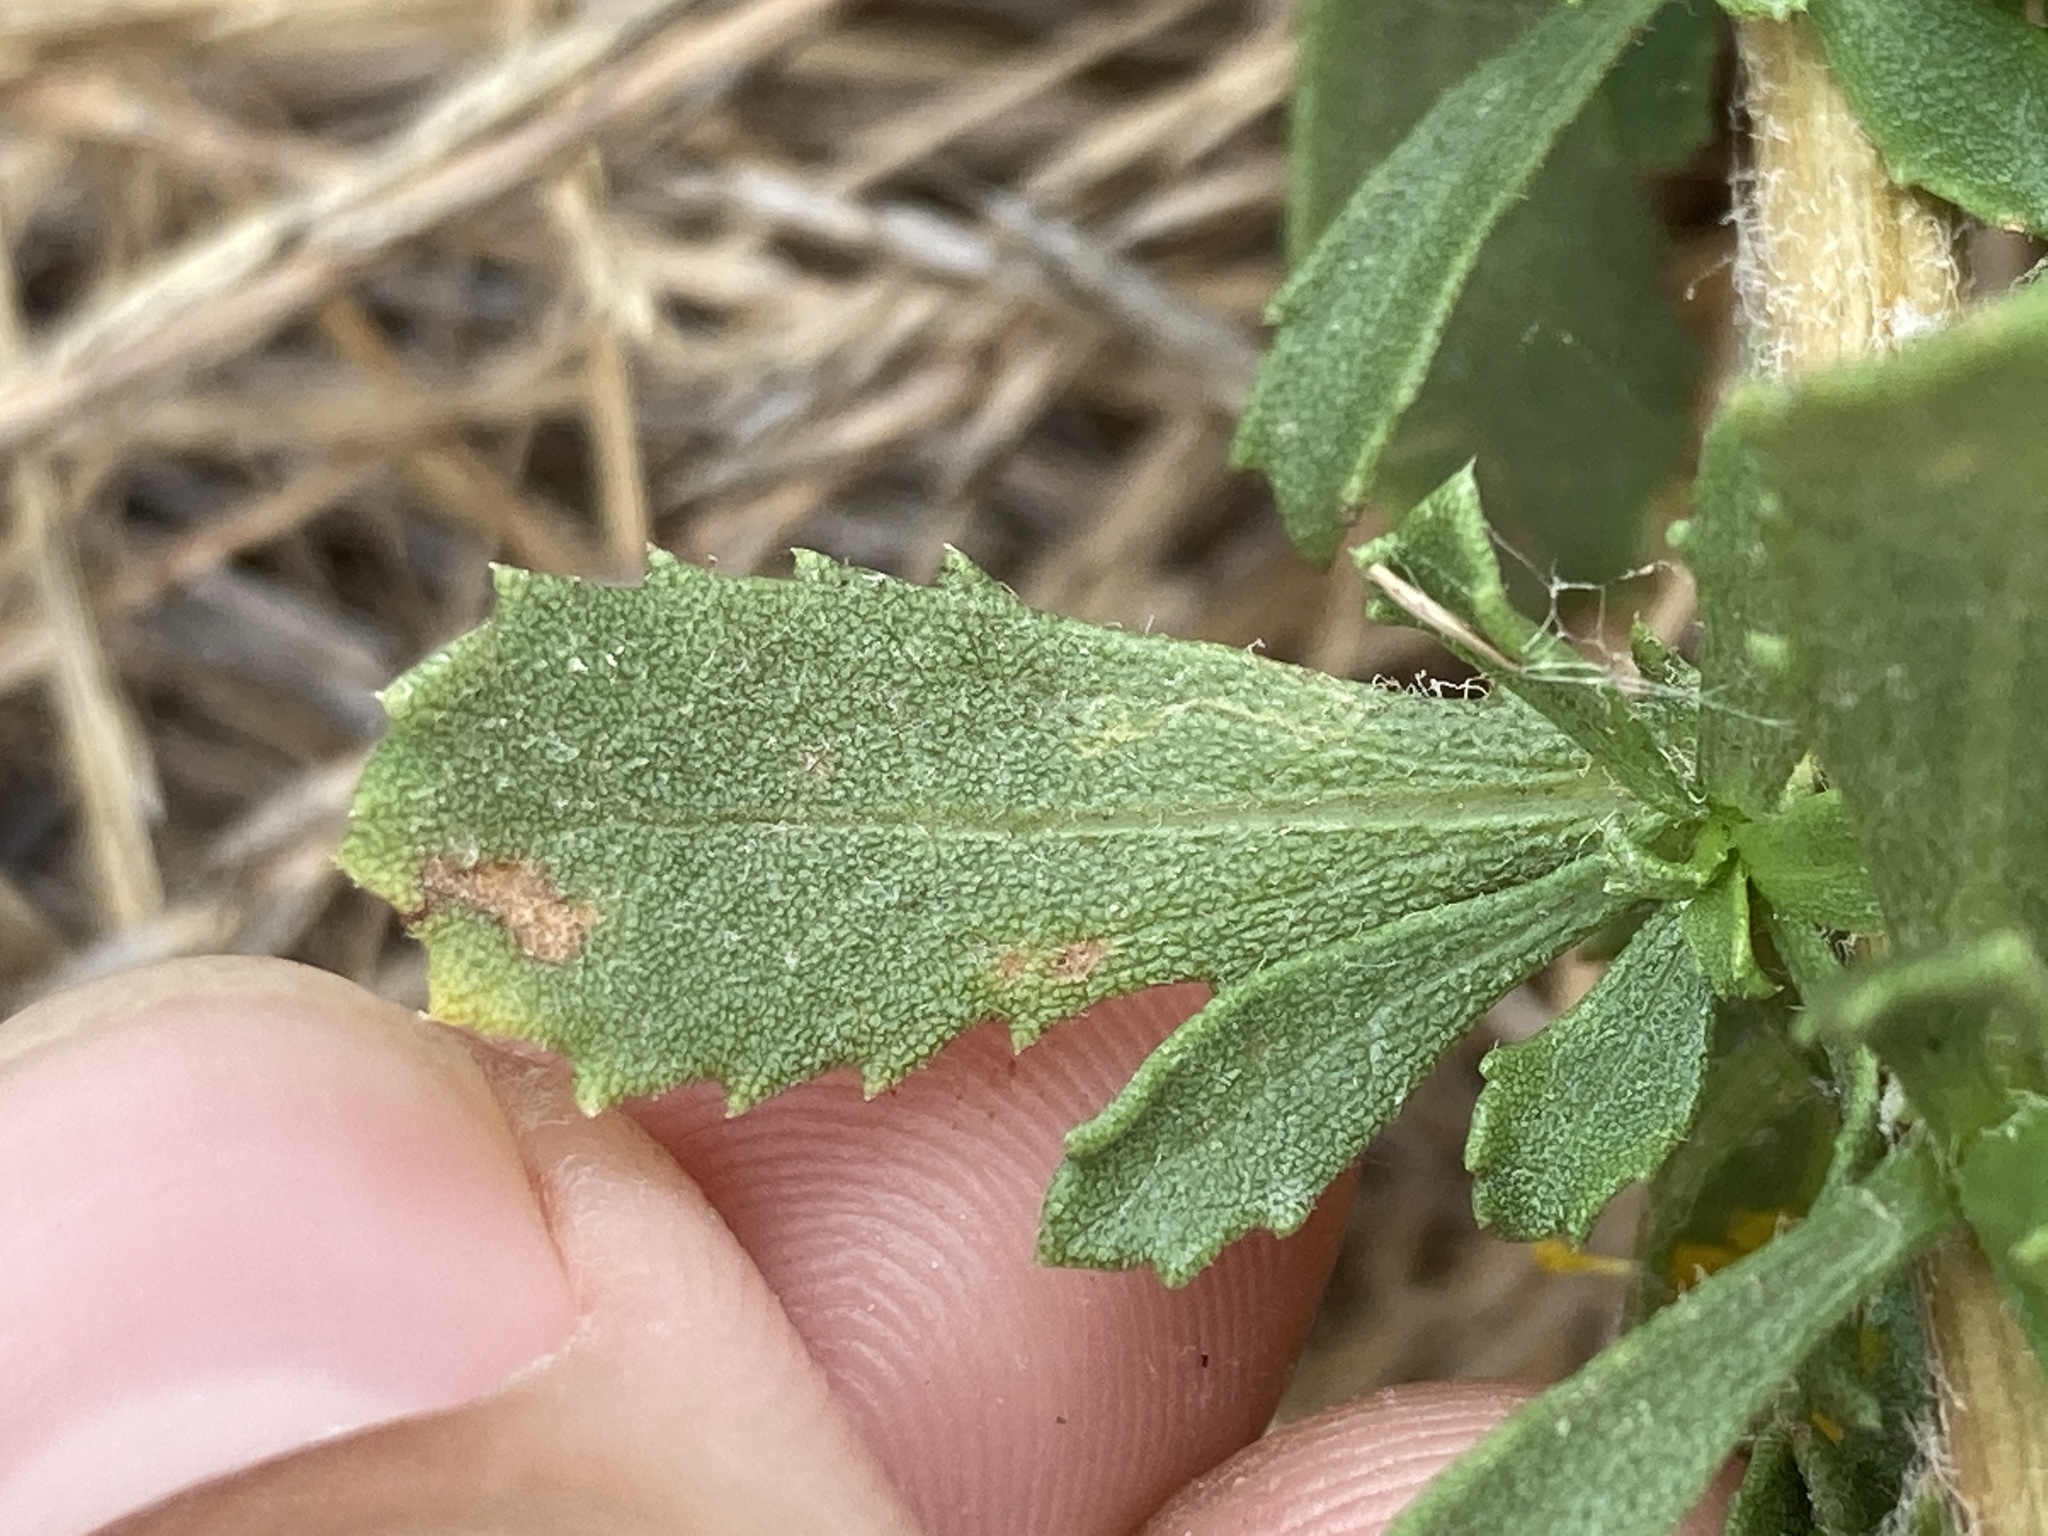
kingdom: Plantae
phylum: Tracheophyta
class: Magnoliopsida
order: Asterales
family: Asteraceae
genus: Isocoma
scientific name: Isocoma menziesii
